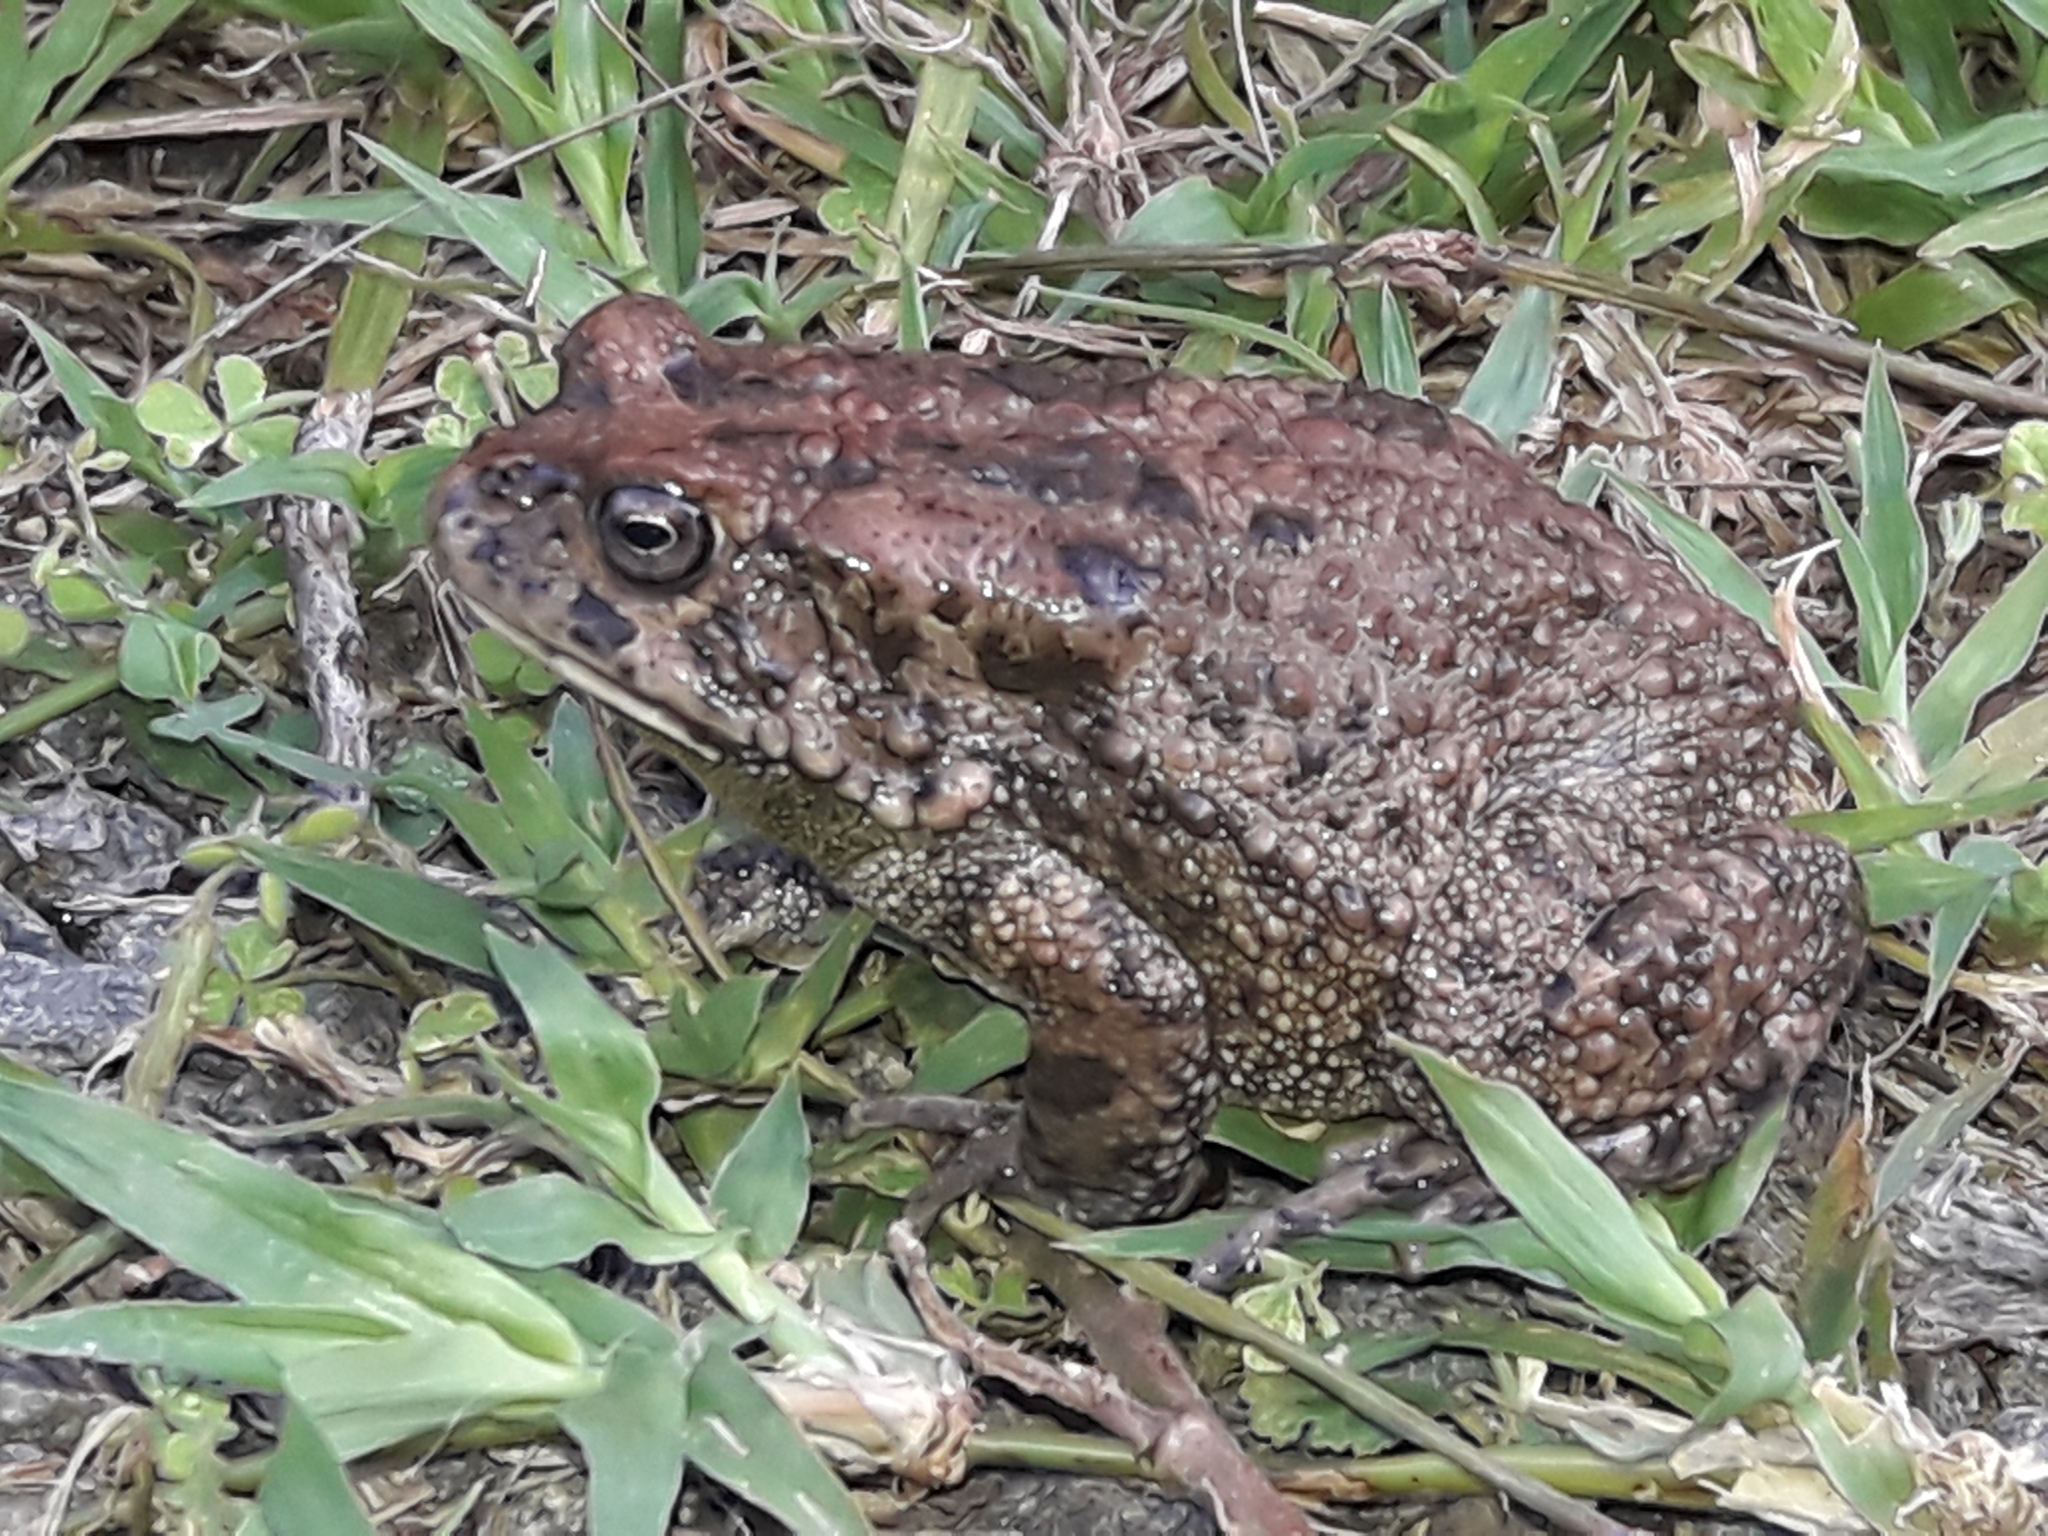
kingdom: Animalia
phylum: Chordata
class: Amphibia
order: Anura
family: Bufonidae
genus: Sclerophrys
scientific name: Sclerophrys gutturalis
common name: African common toad
